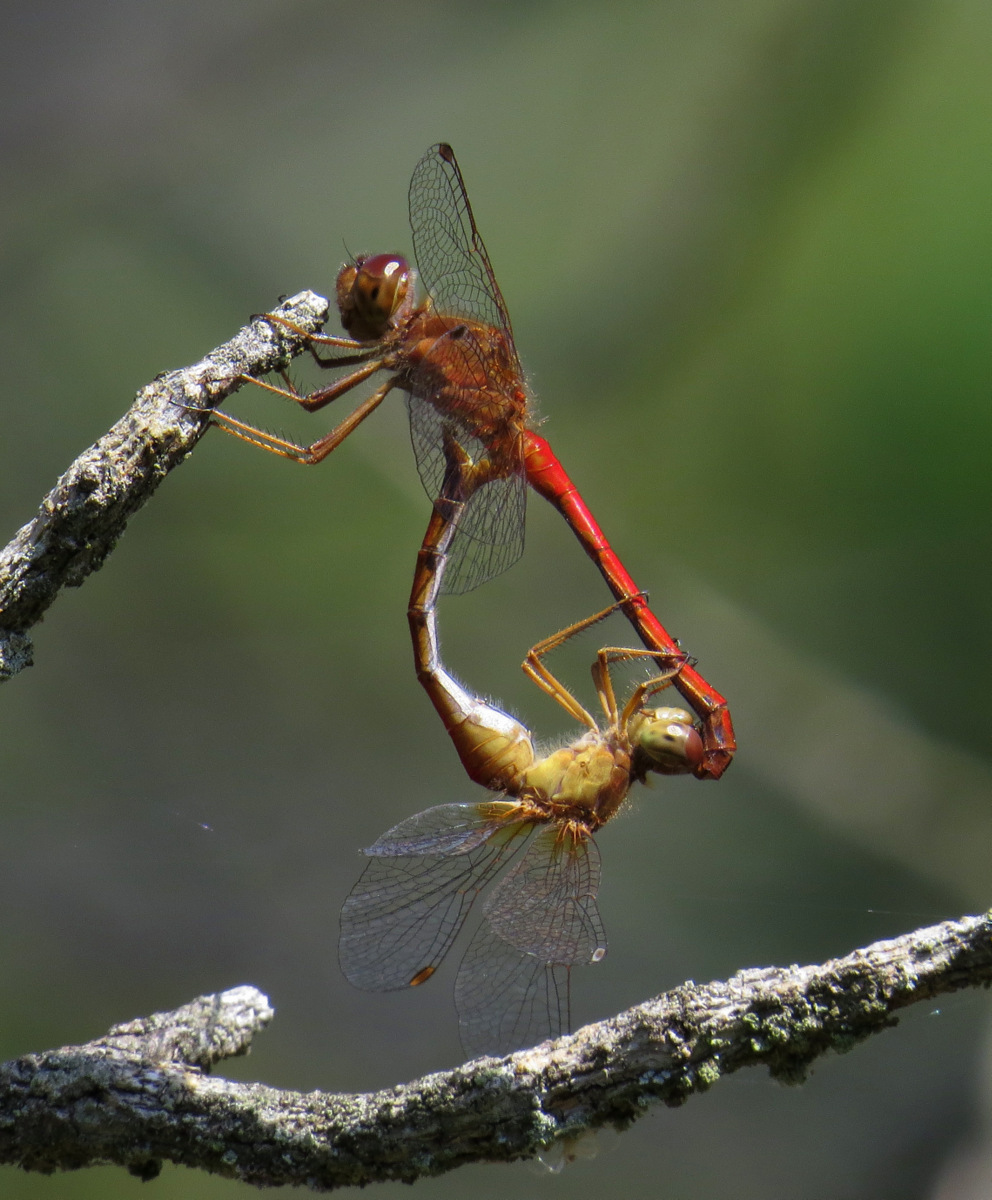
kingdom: Animalia
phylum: Arthropoda
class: Insecta
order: Odonata
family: Libellulidae
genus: Sympetrum
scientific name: Sympetrum vicinum
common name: Autumn meadowhawk
